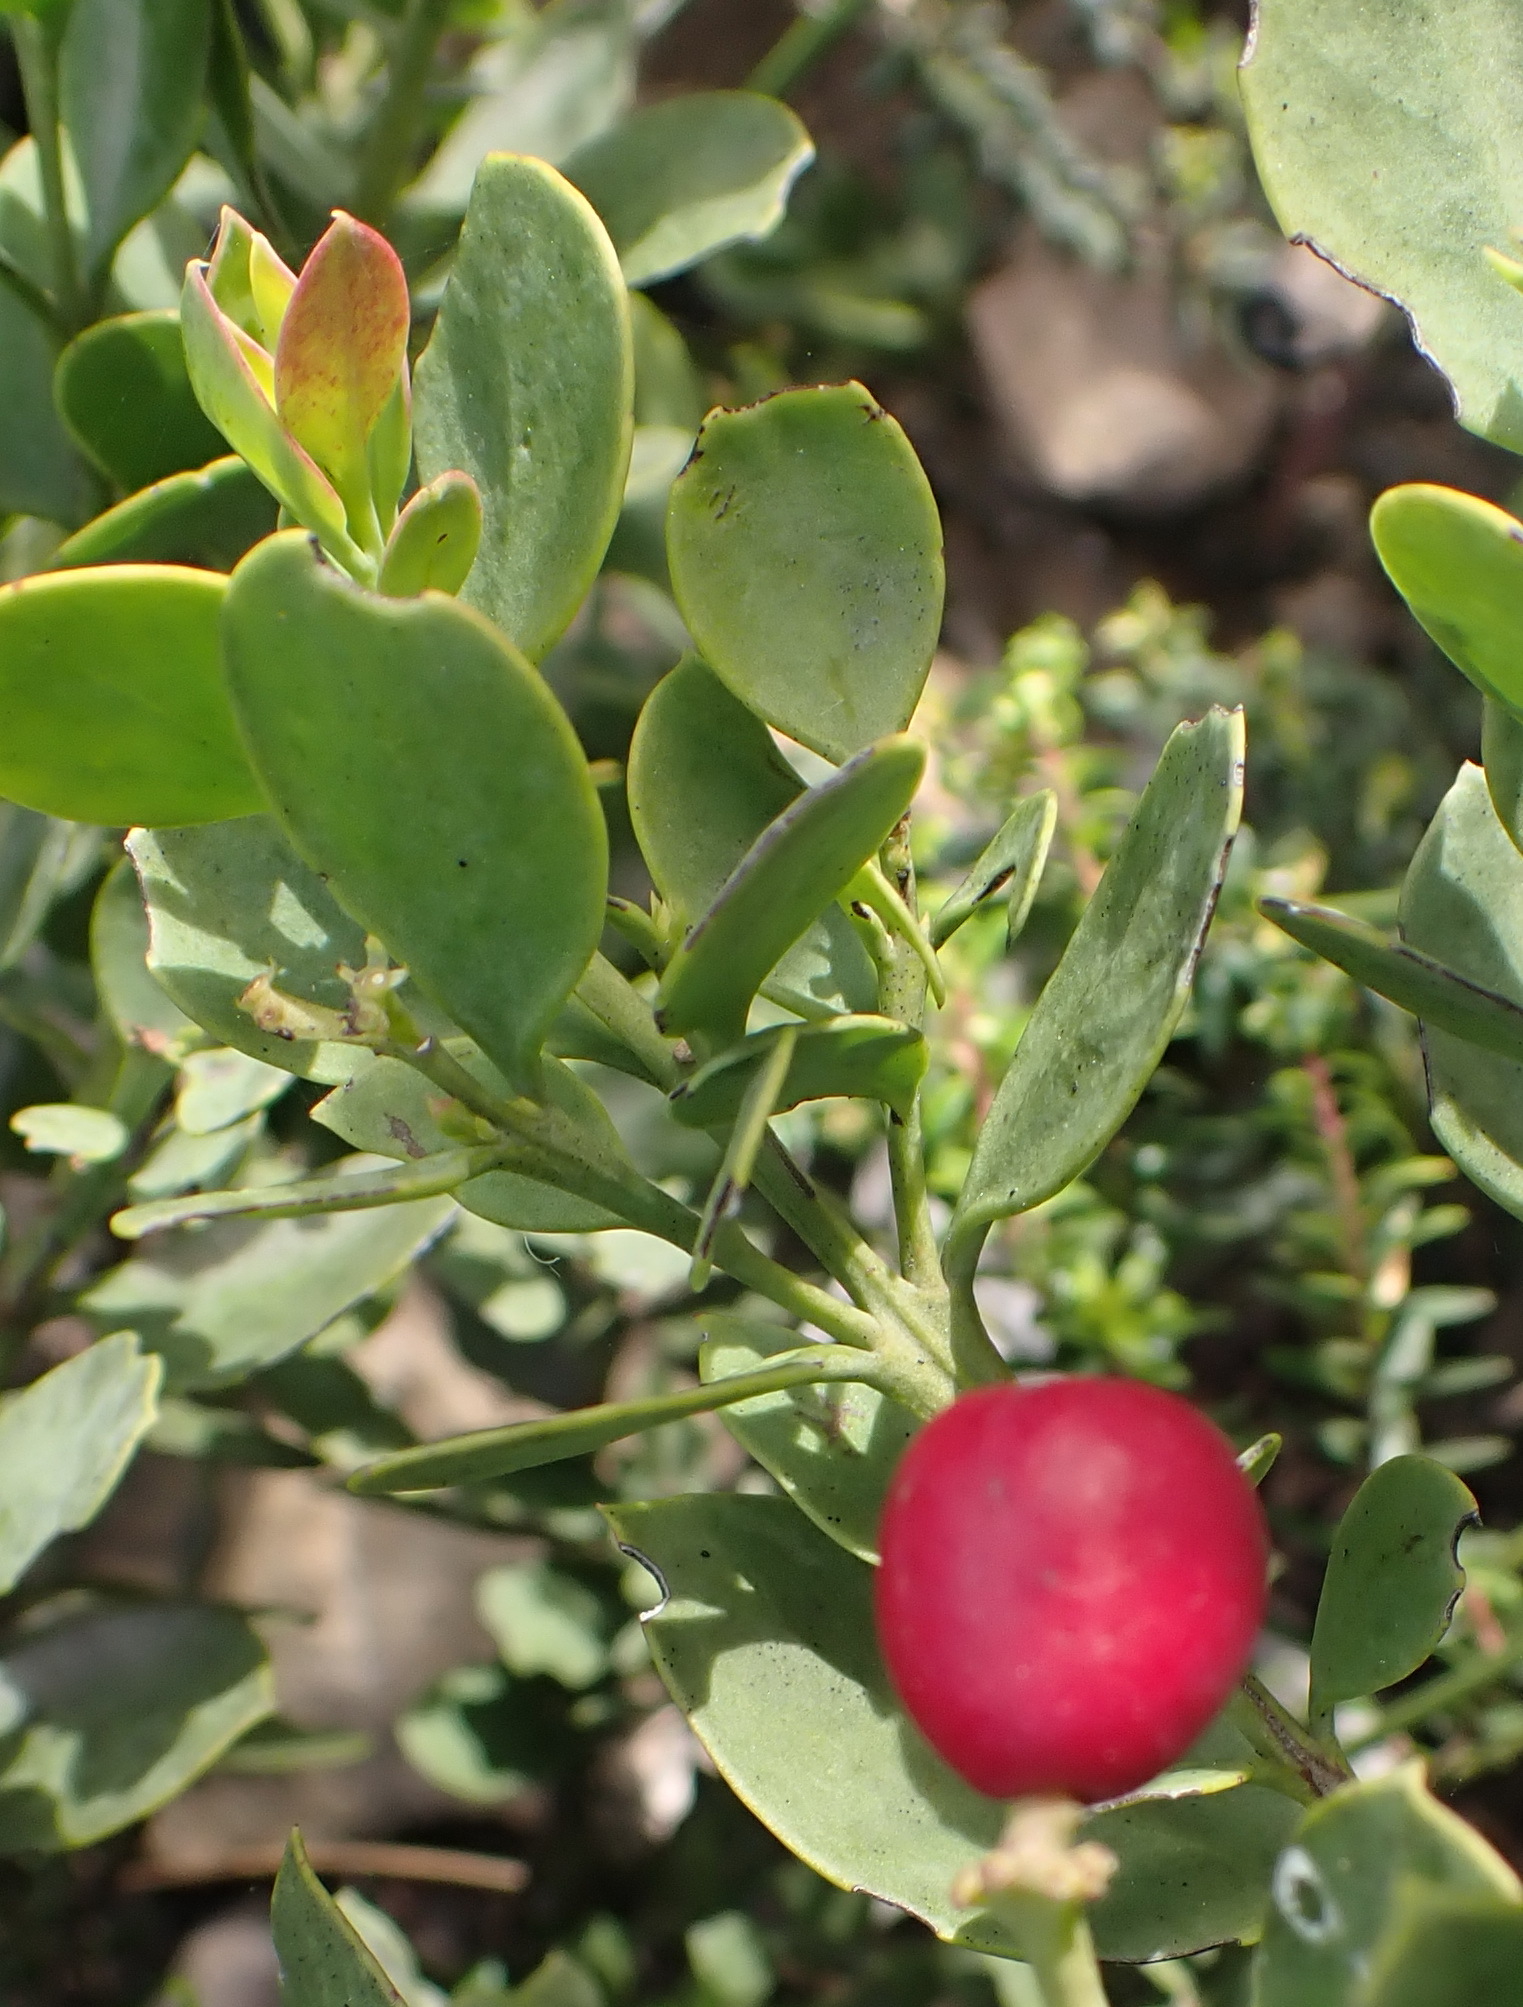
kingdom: Plantae
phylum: Tracheophyta
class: Magnoliopsida
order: Santalales
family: Santalaceae
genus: Osyris
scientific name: Osyris compressa
